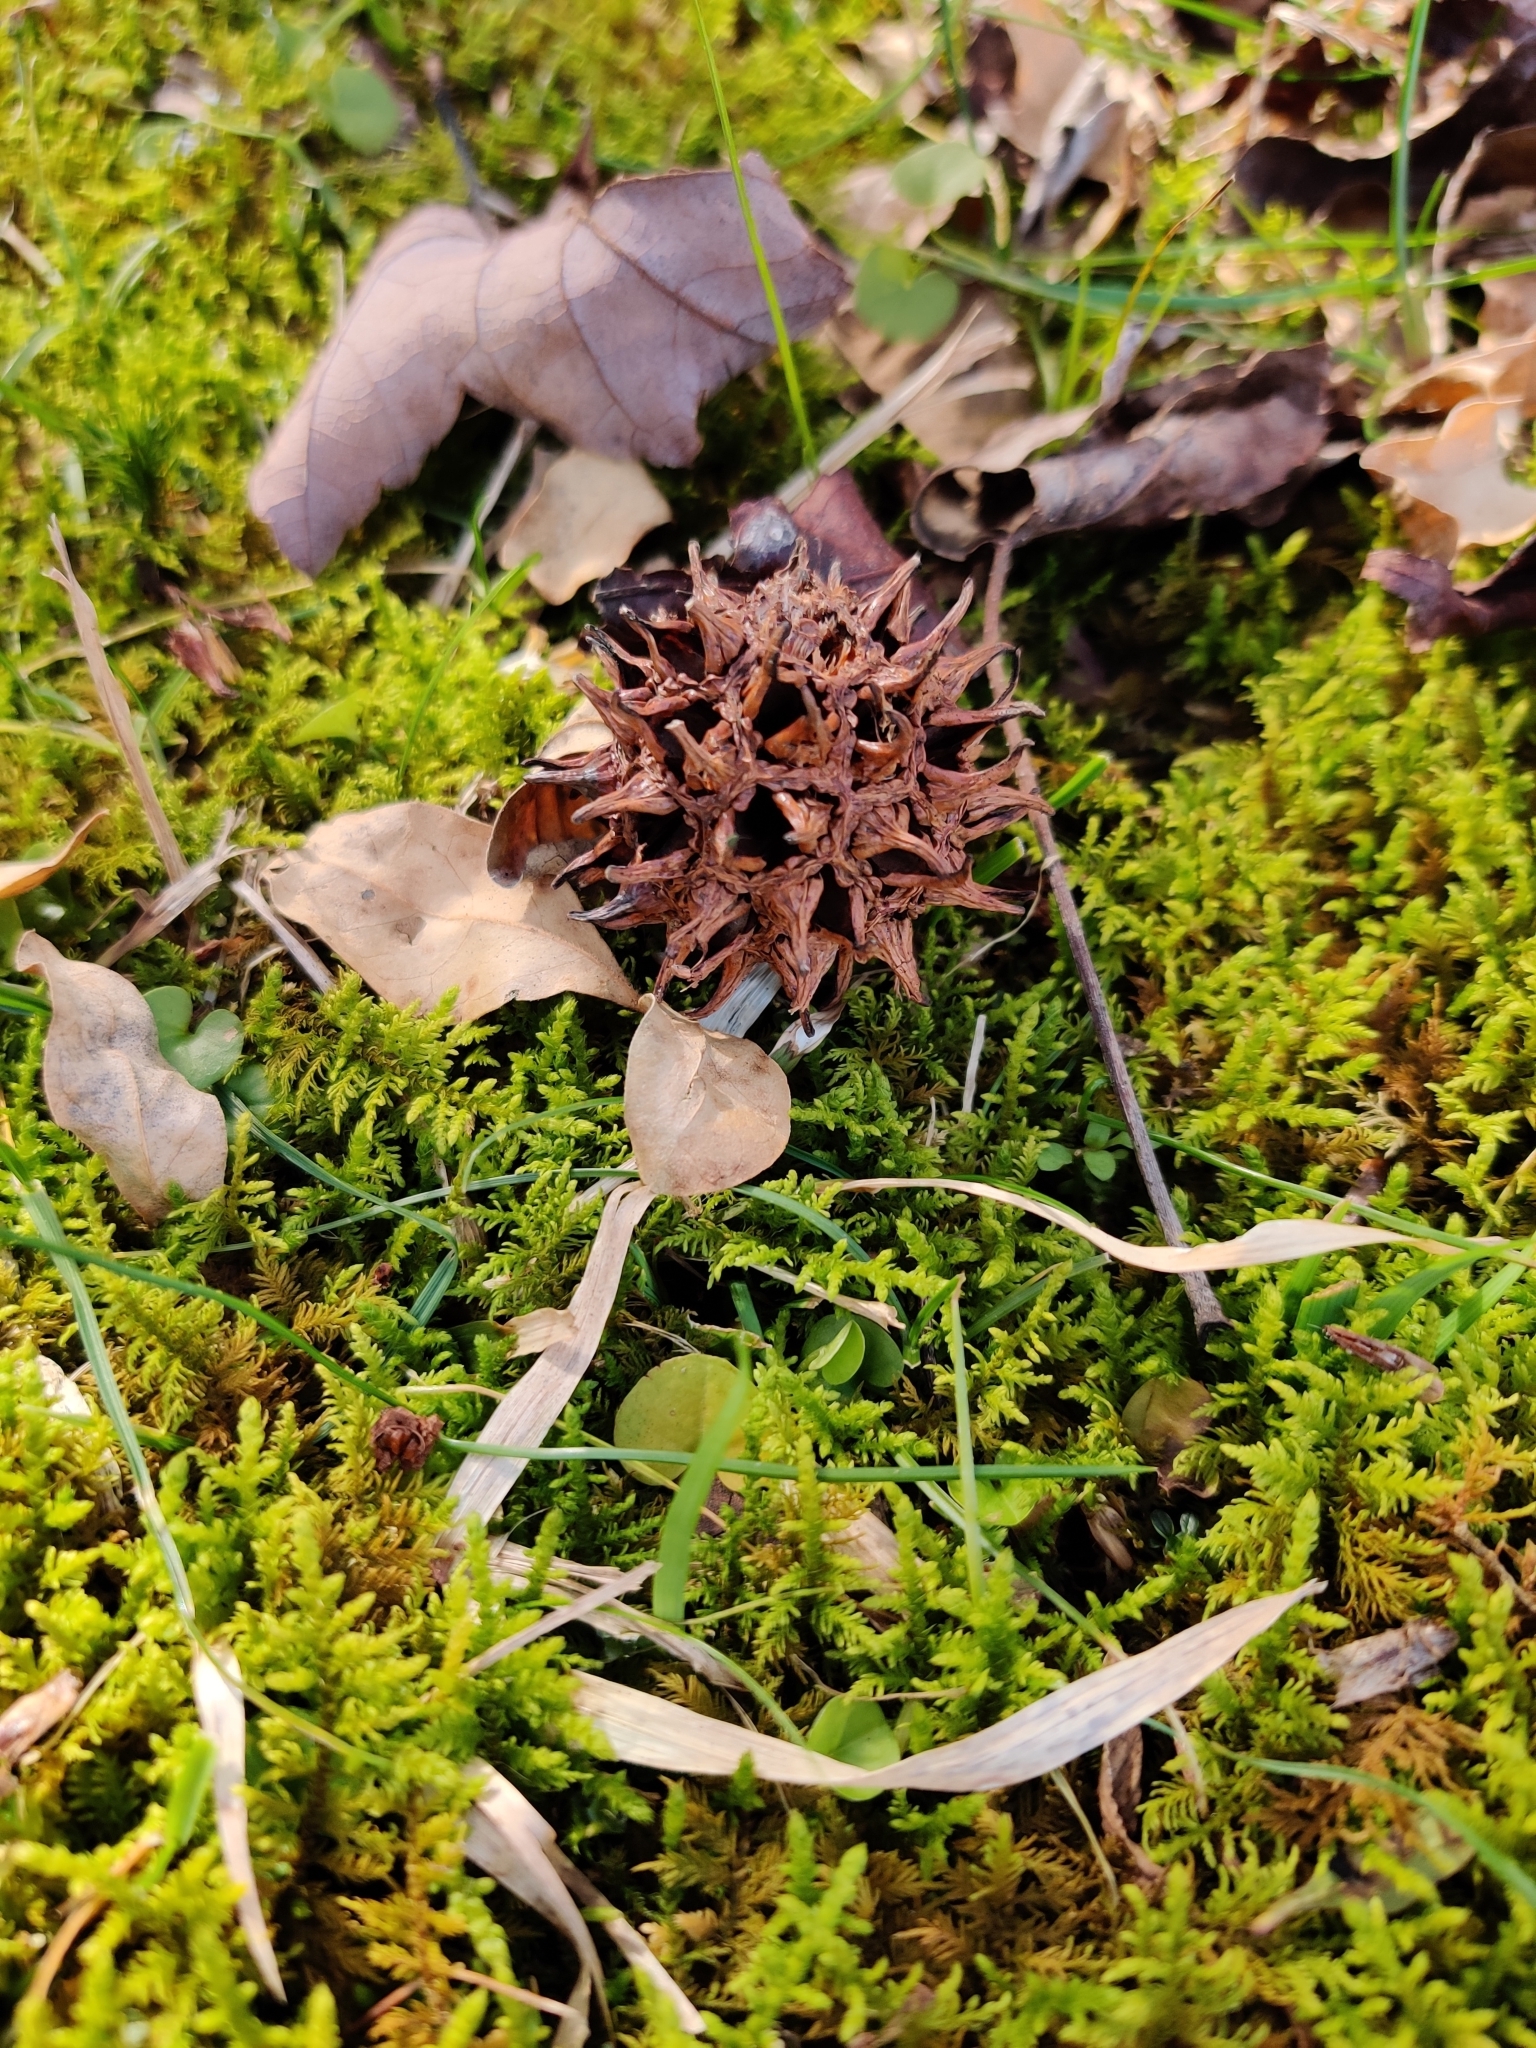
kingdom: Plantae
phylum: Tracheophyta
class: Magnoliopsida
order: Saxifragales
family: Altingiaceae
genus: Liquidambar
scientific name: Liquidambar styraciflua
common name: Sweet gum
